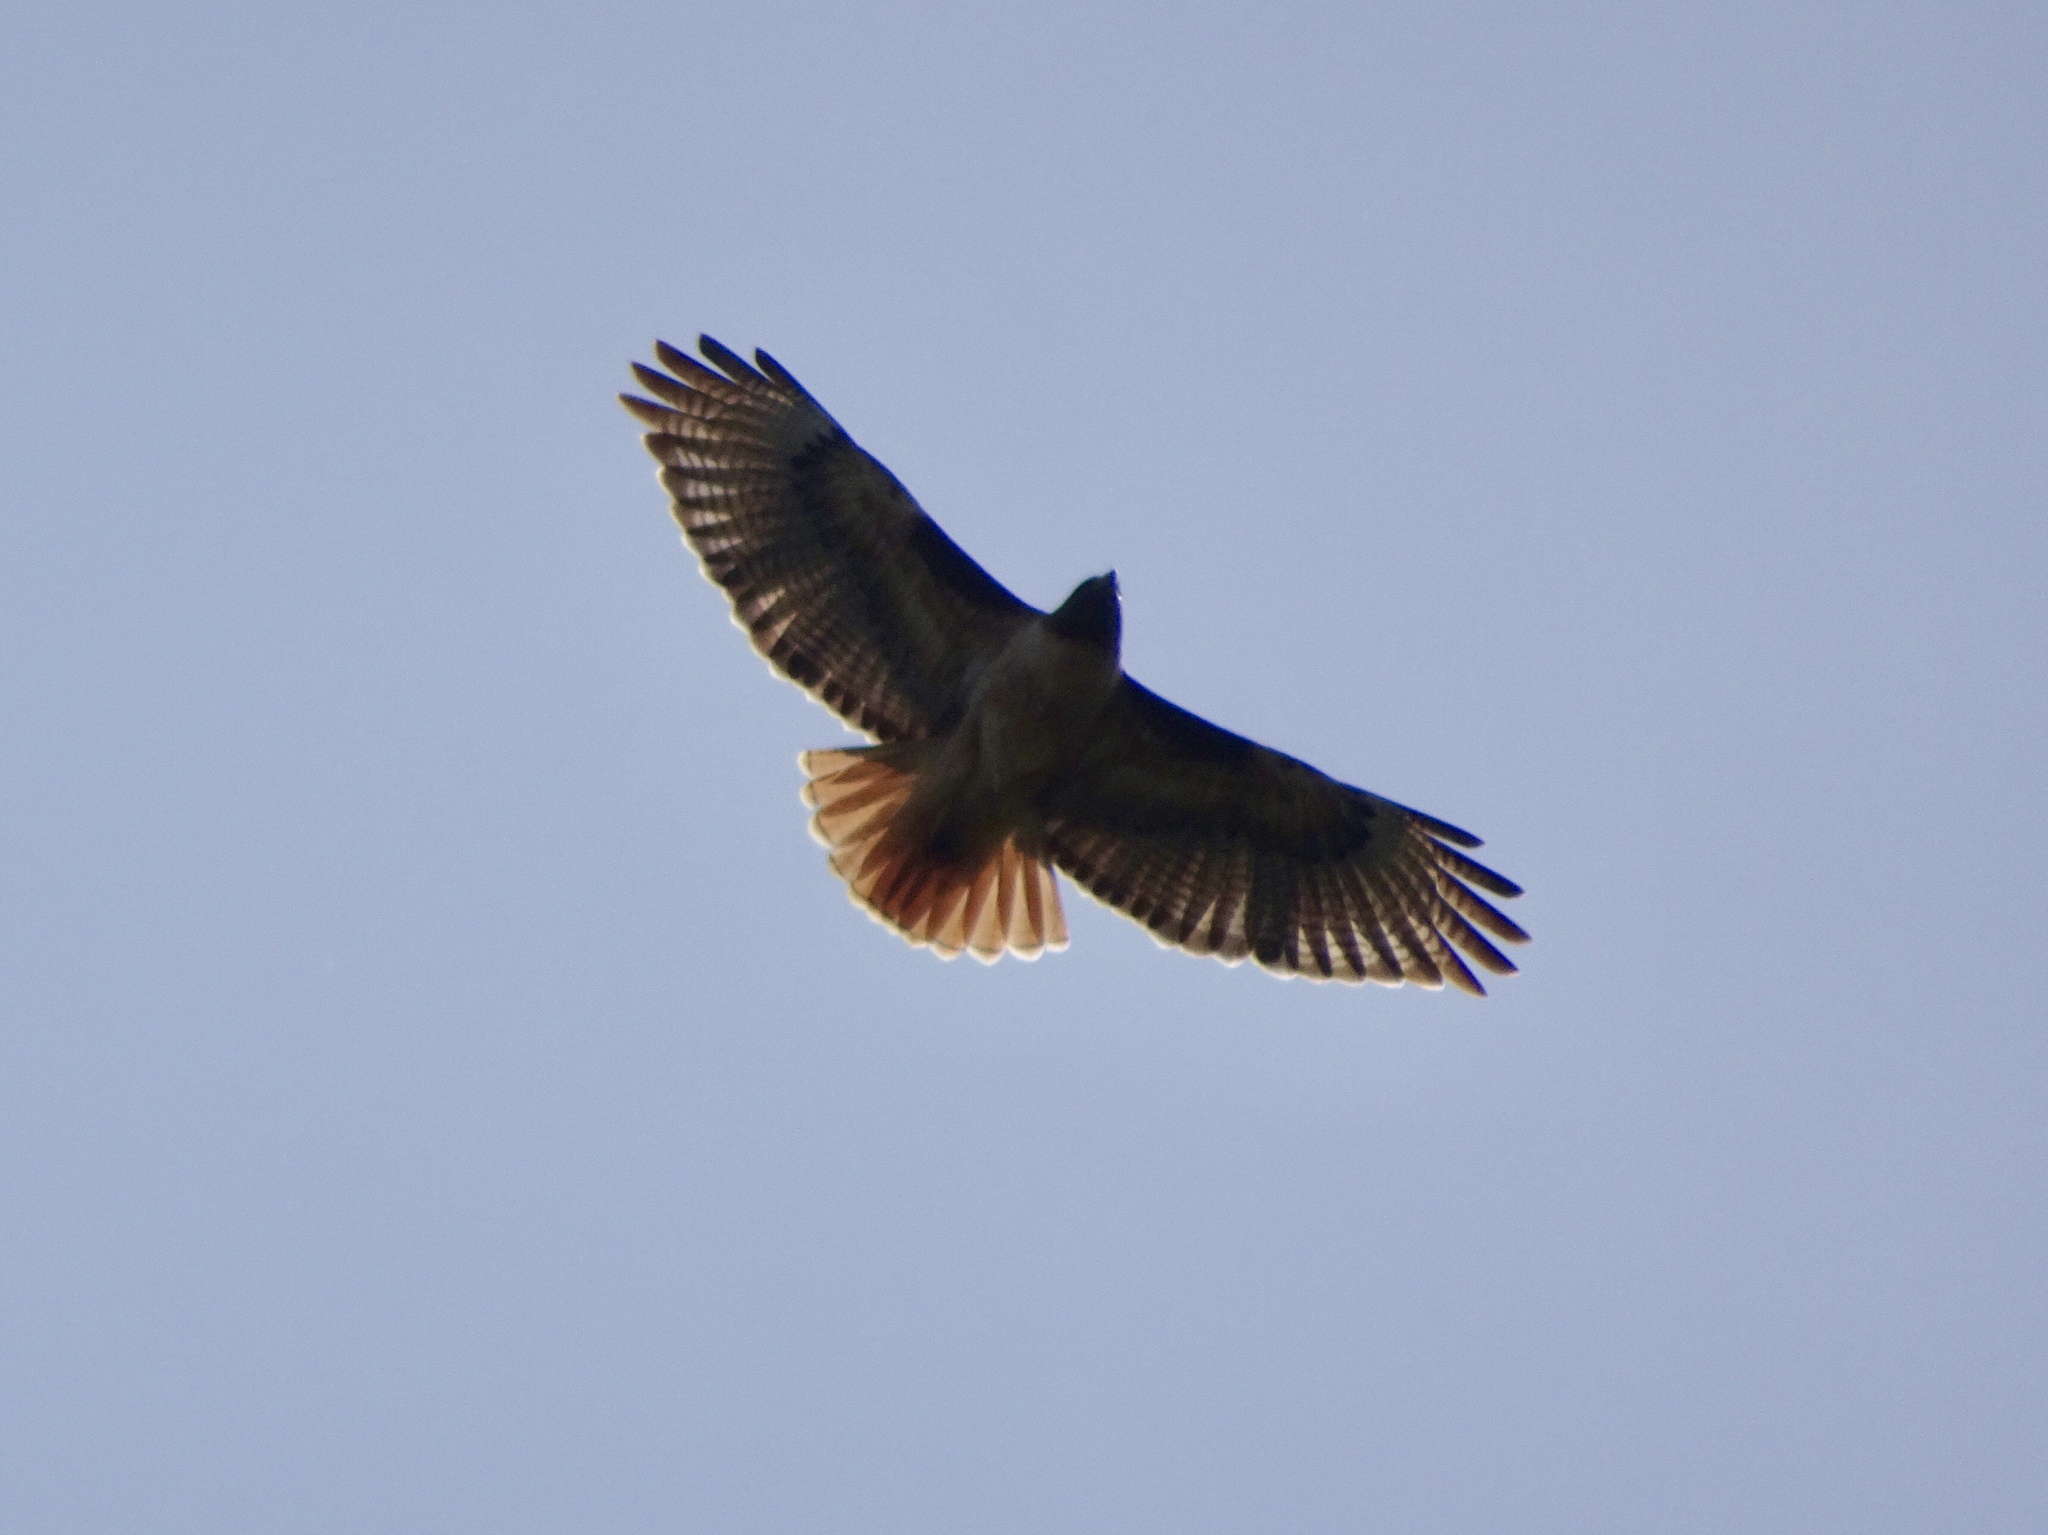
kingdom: Animalia
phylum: Chordata
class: Aves
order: Accipitriformes
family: Accipitridae
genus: Buteo
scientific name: Buteo jamaicensis
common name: Red-tailed hawk
